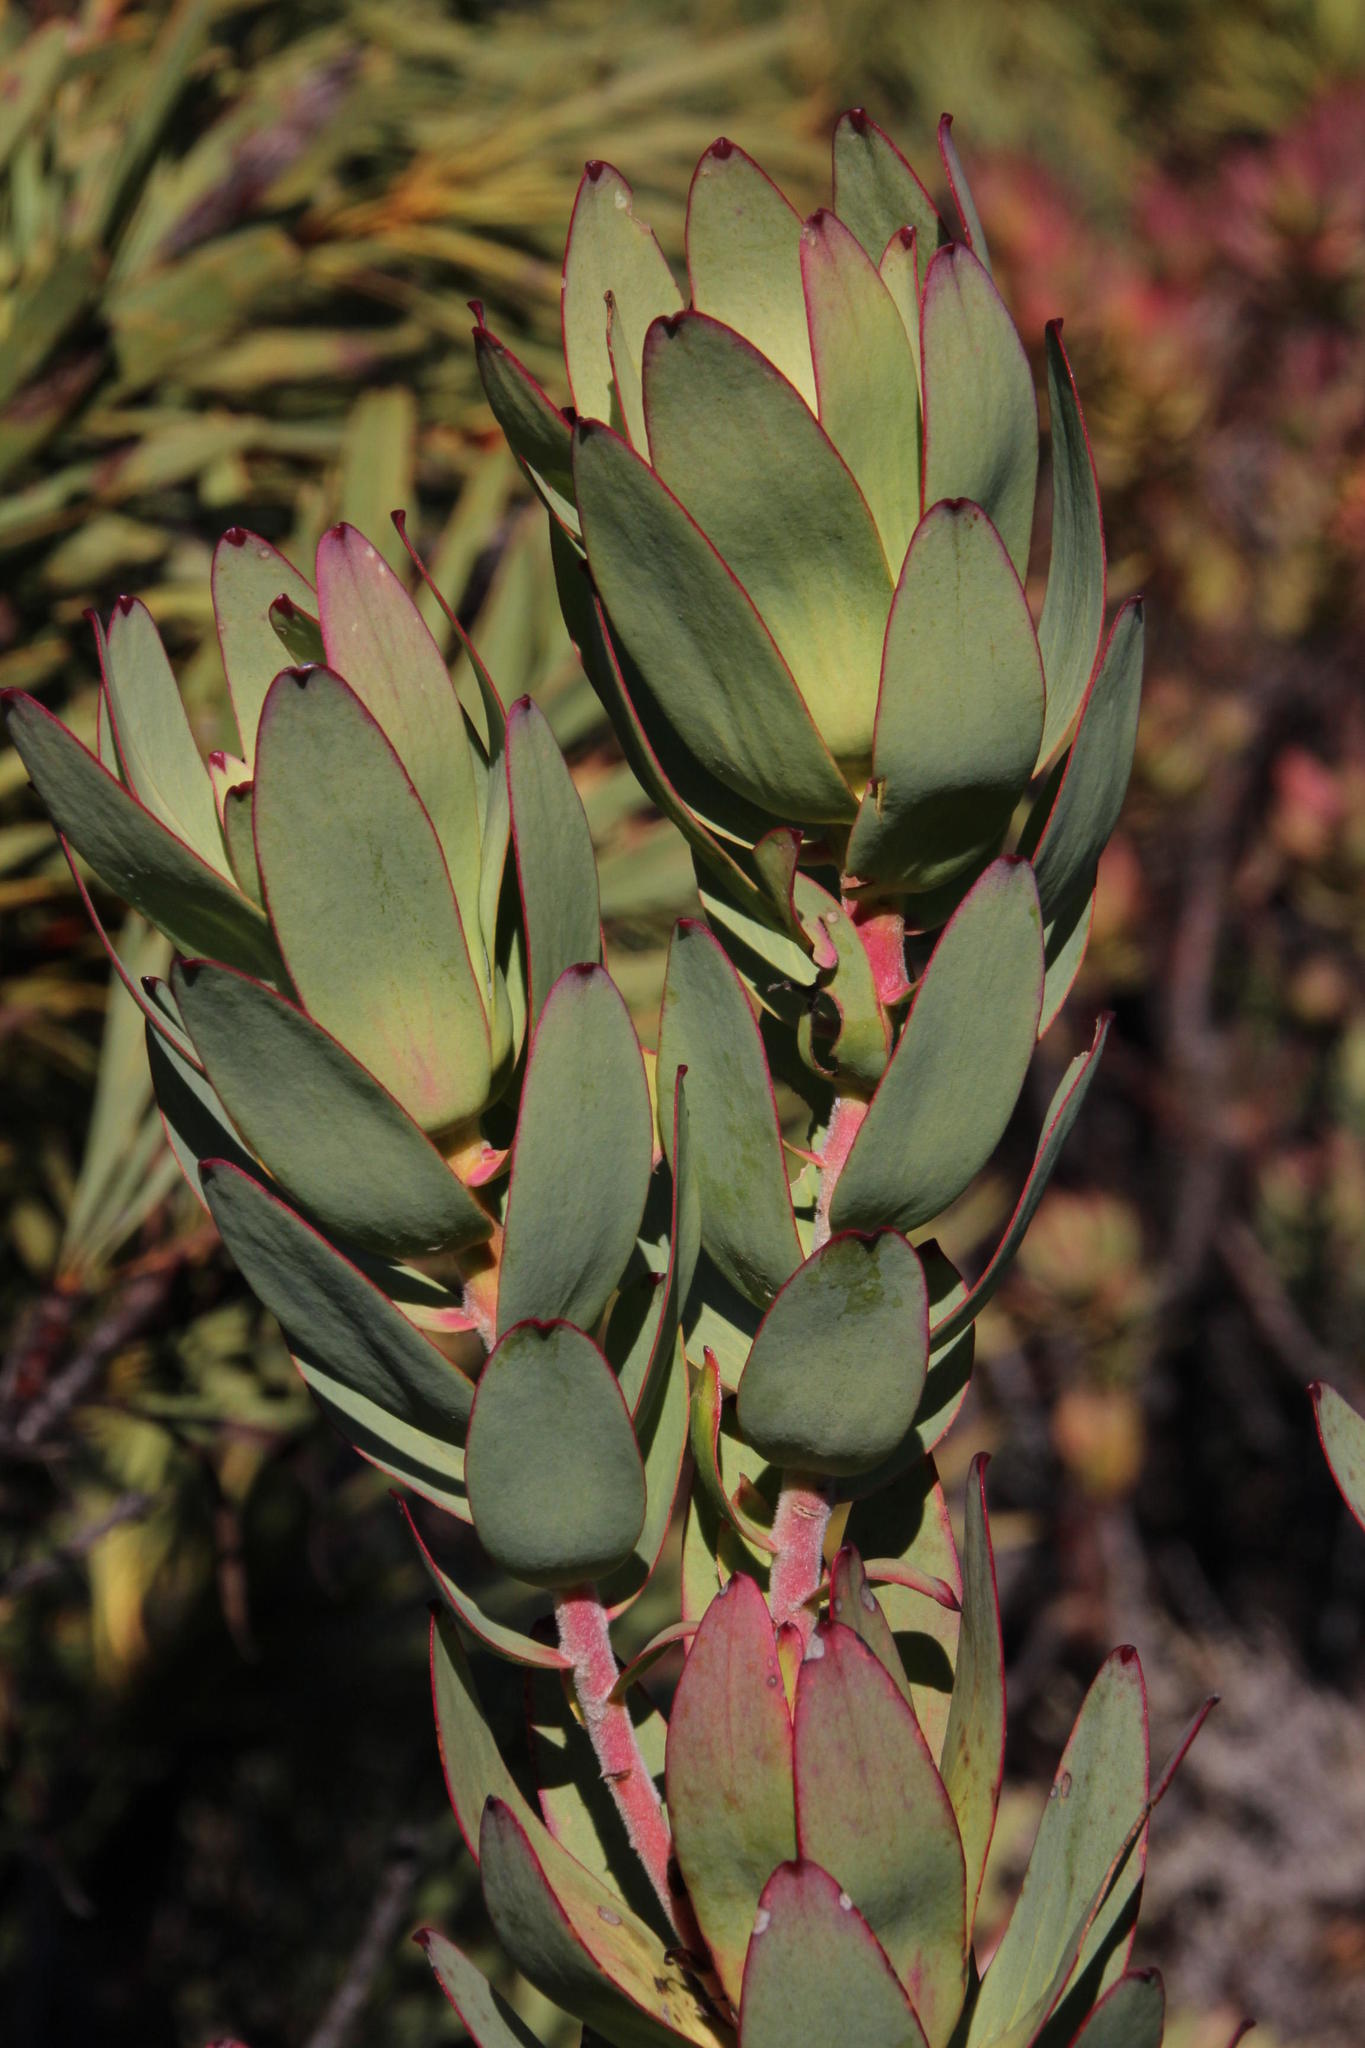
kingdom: Plantae
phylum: Tracheophyta
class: Magnoliopsida
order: Proteales
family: Proteaceae
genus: Leucadendron
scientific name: Leucadendron burchellii
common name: Riviersonderend conebush
